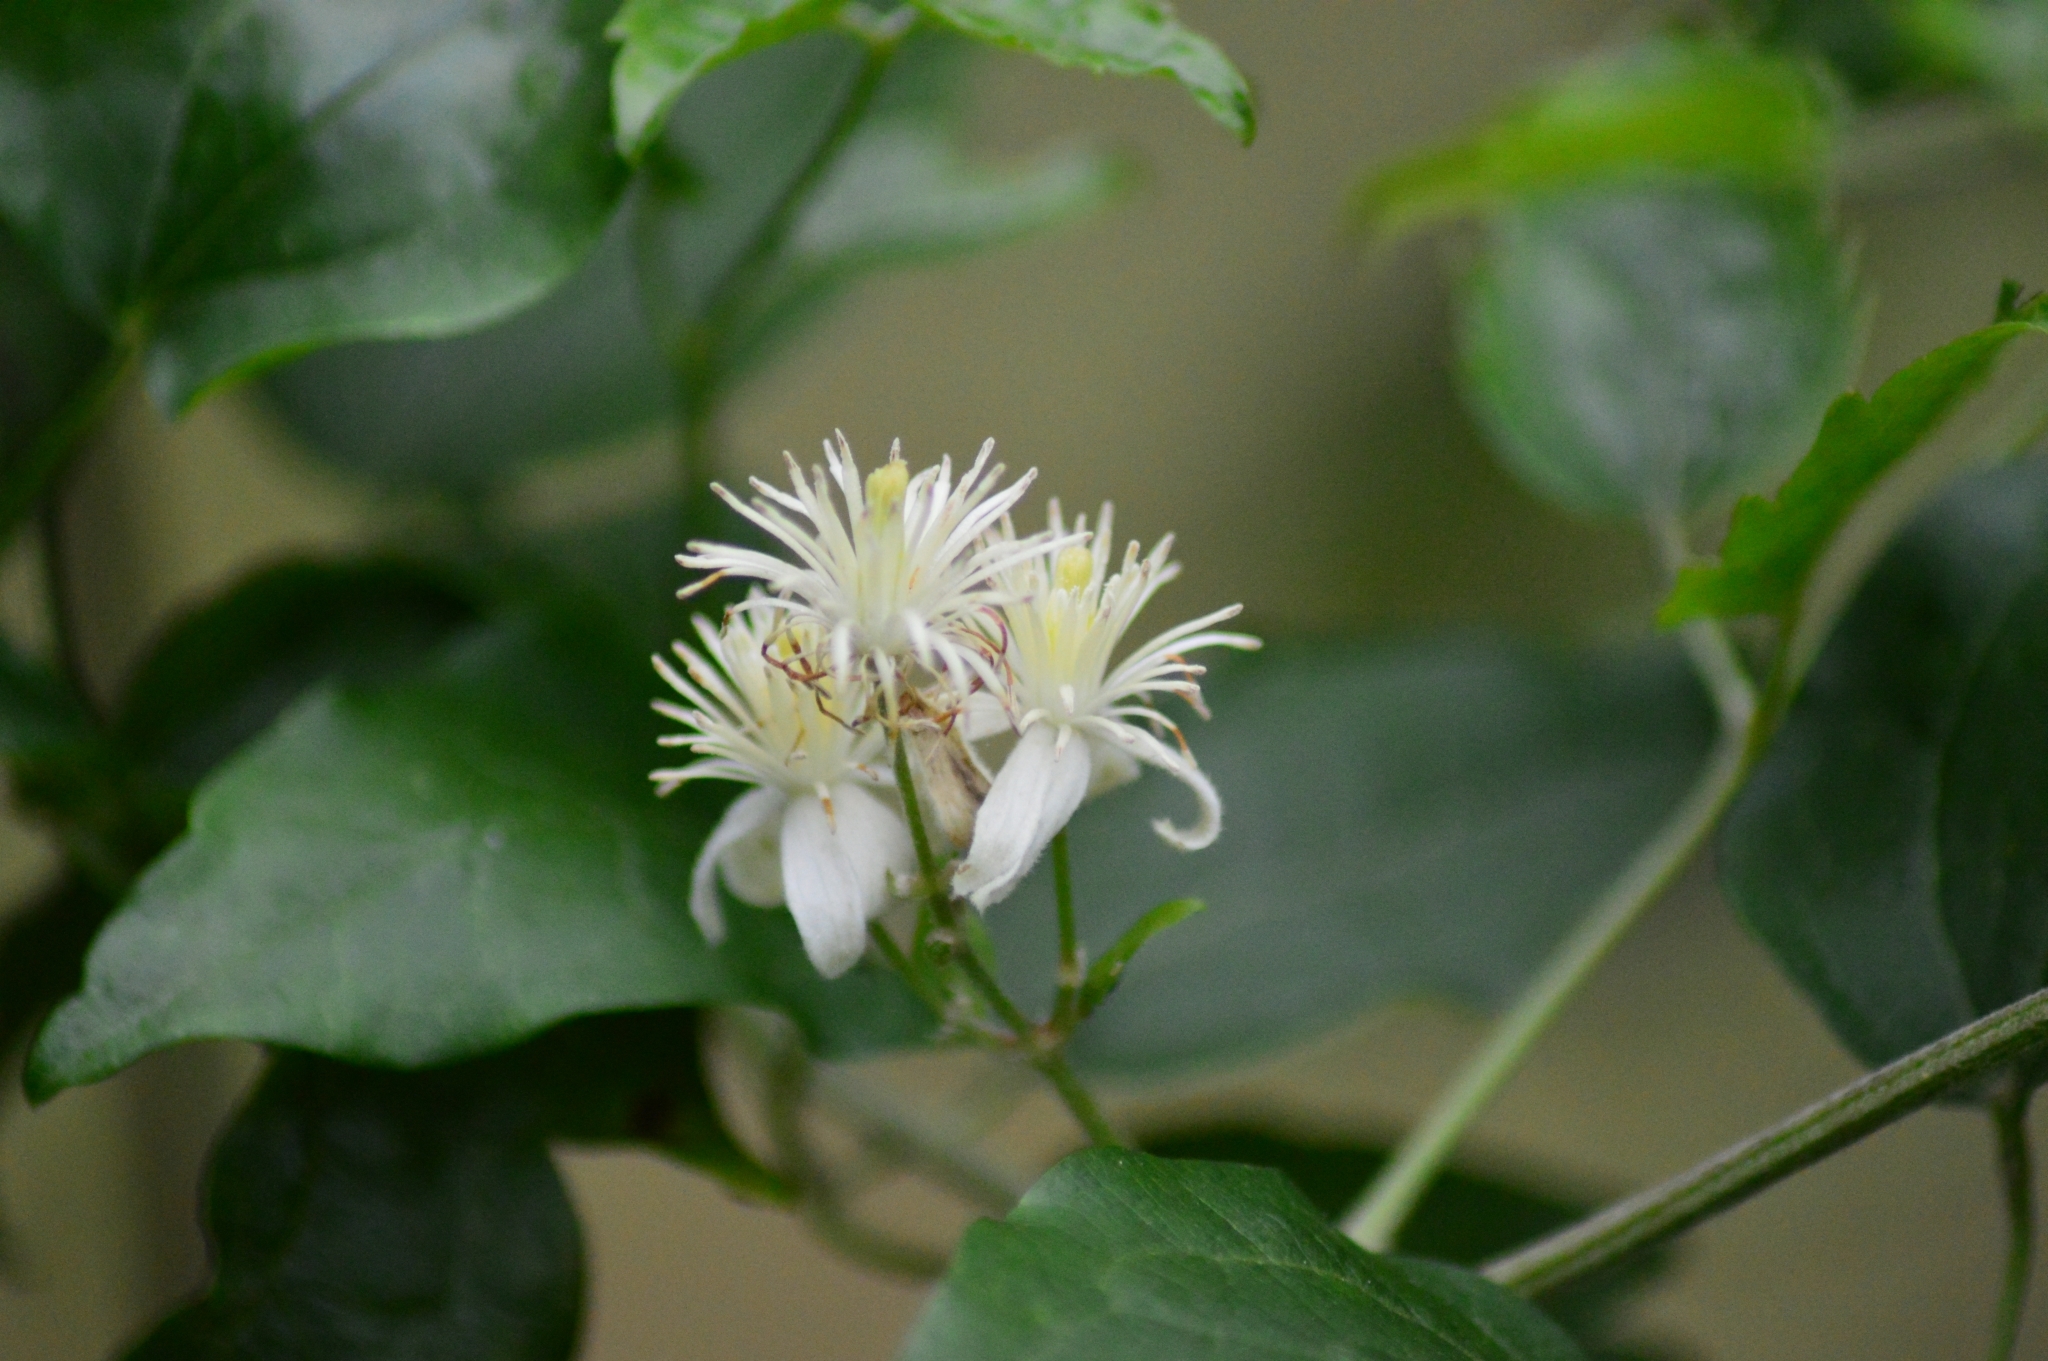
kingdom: Plantae
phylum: Tracheophyta
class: Magnoliopsida
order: Ranunculales
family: Ranunculaceae
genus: Clematis
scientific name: Clematis vitalba
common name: Evergreen clematis
